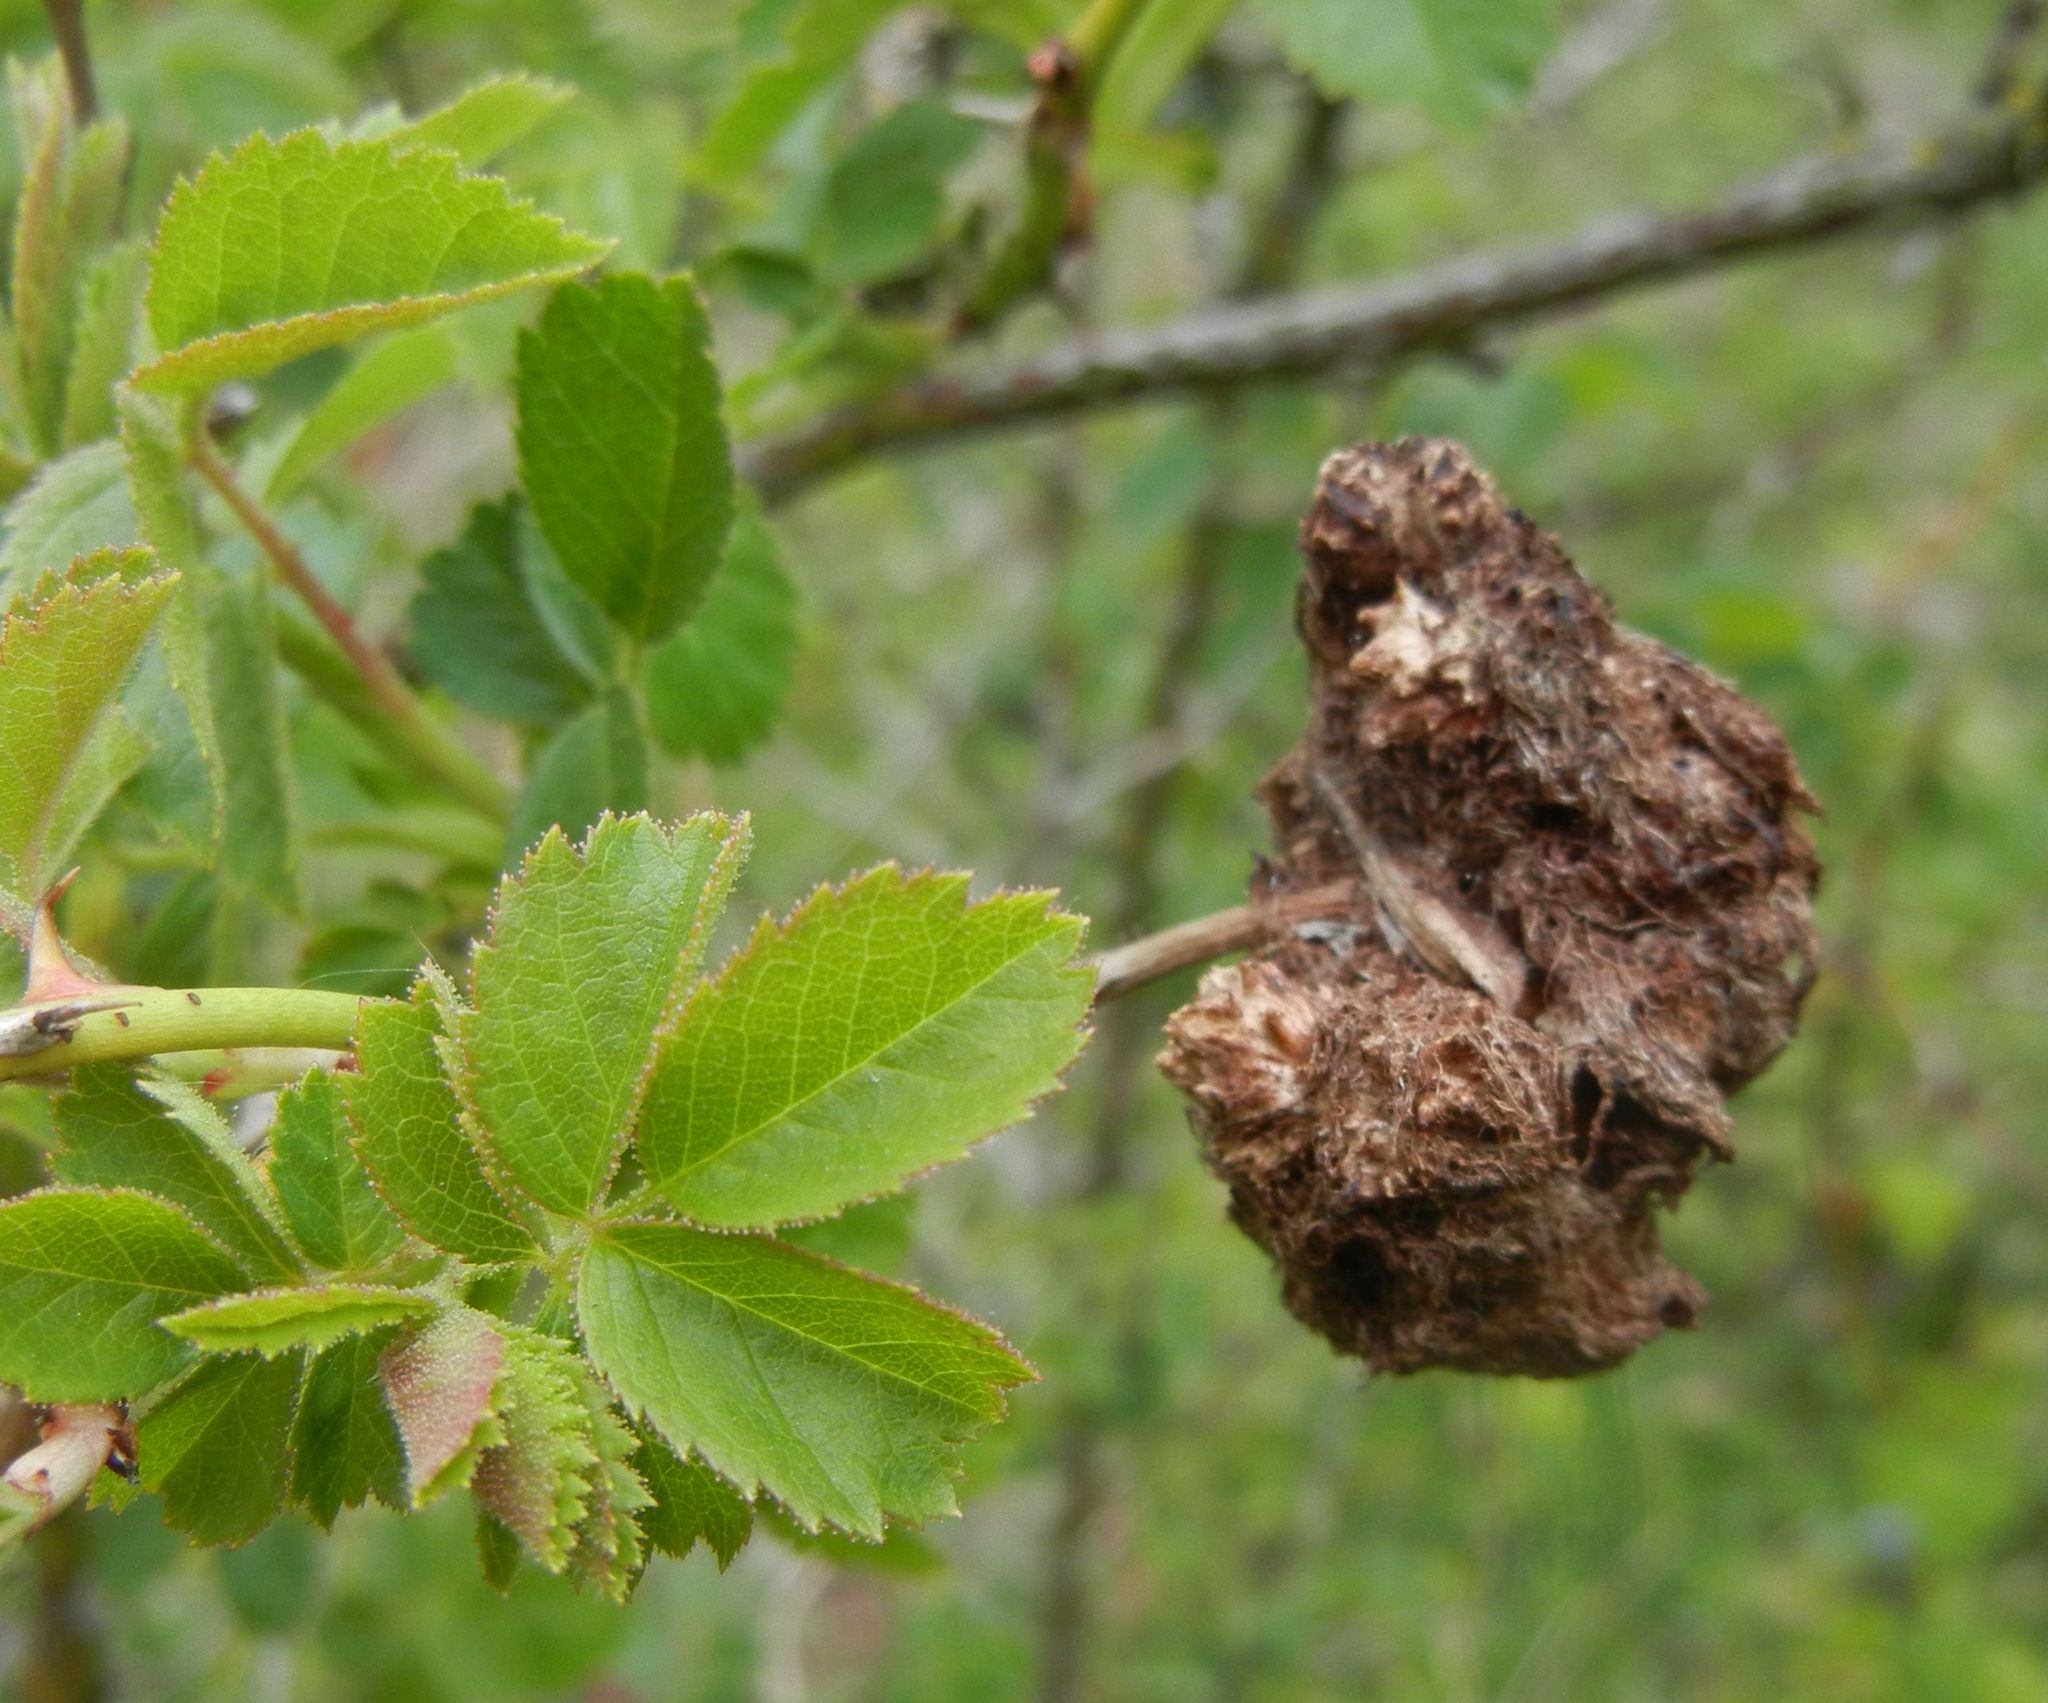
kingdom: Animalia
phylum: Arthropoda
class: Insecta
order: Hymenoptera
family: Cynipidae
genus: Diplolepis
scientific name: Diplolepis rosae
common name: Bedeguar gall
